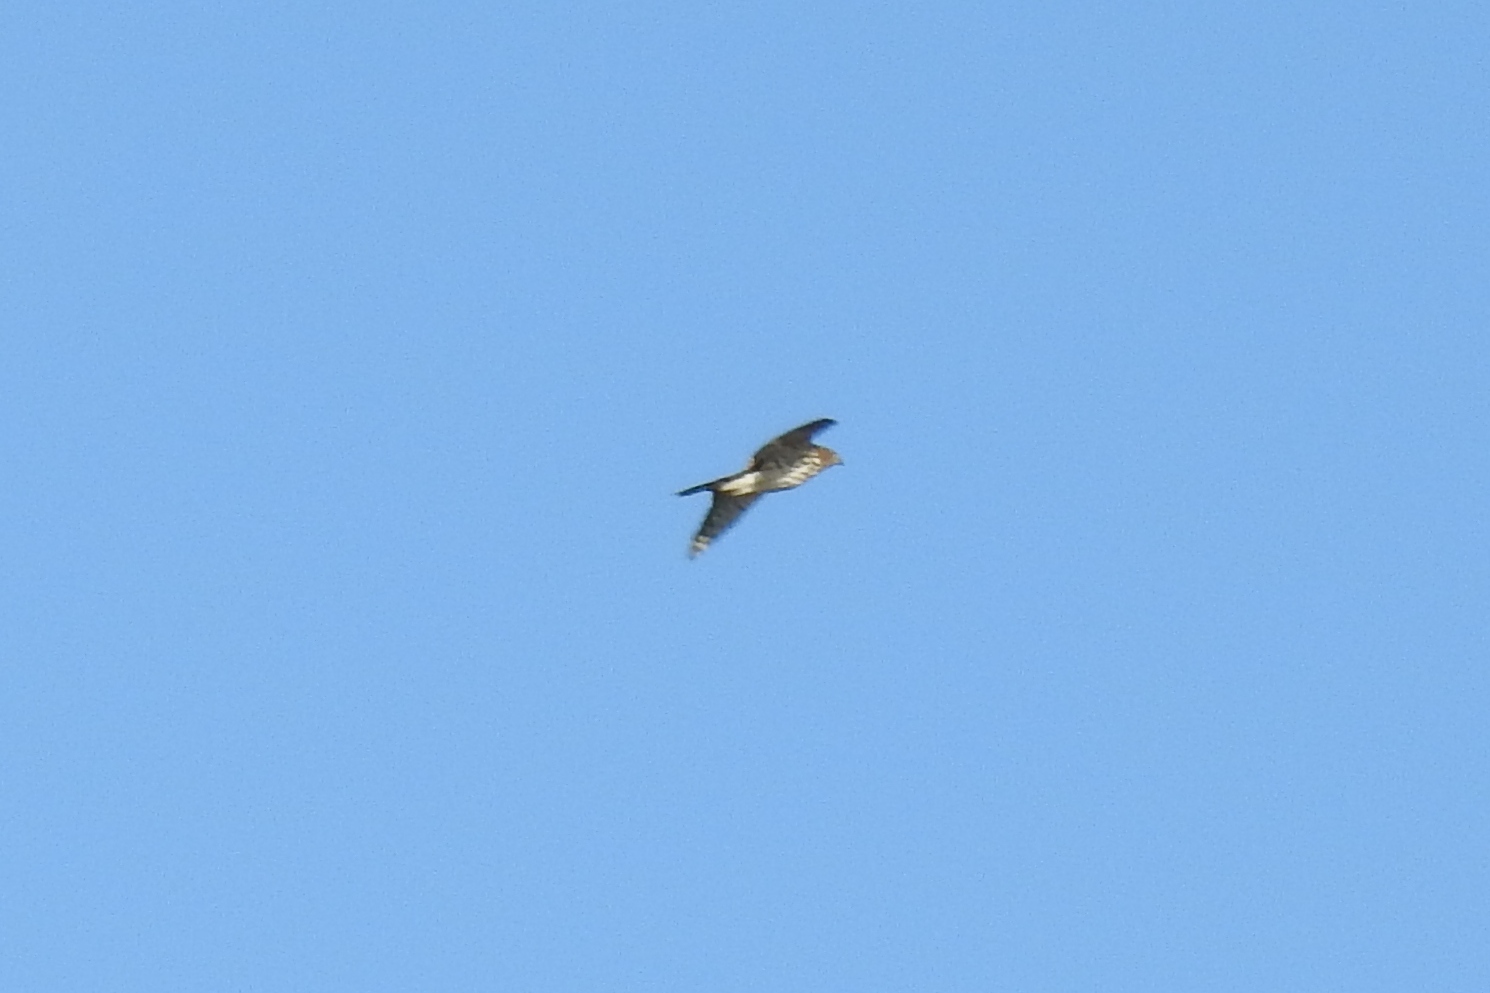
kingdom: Animalia
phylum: Chordata
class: Aves
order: Accipitriformes
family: Accipitridae
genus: Accipiter
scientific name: Accipiter cooperii
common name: Cooper's hawk
